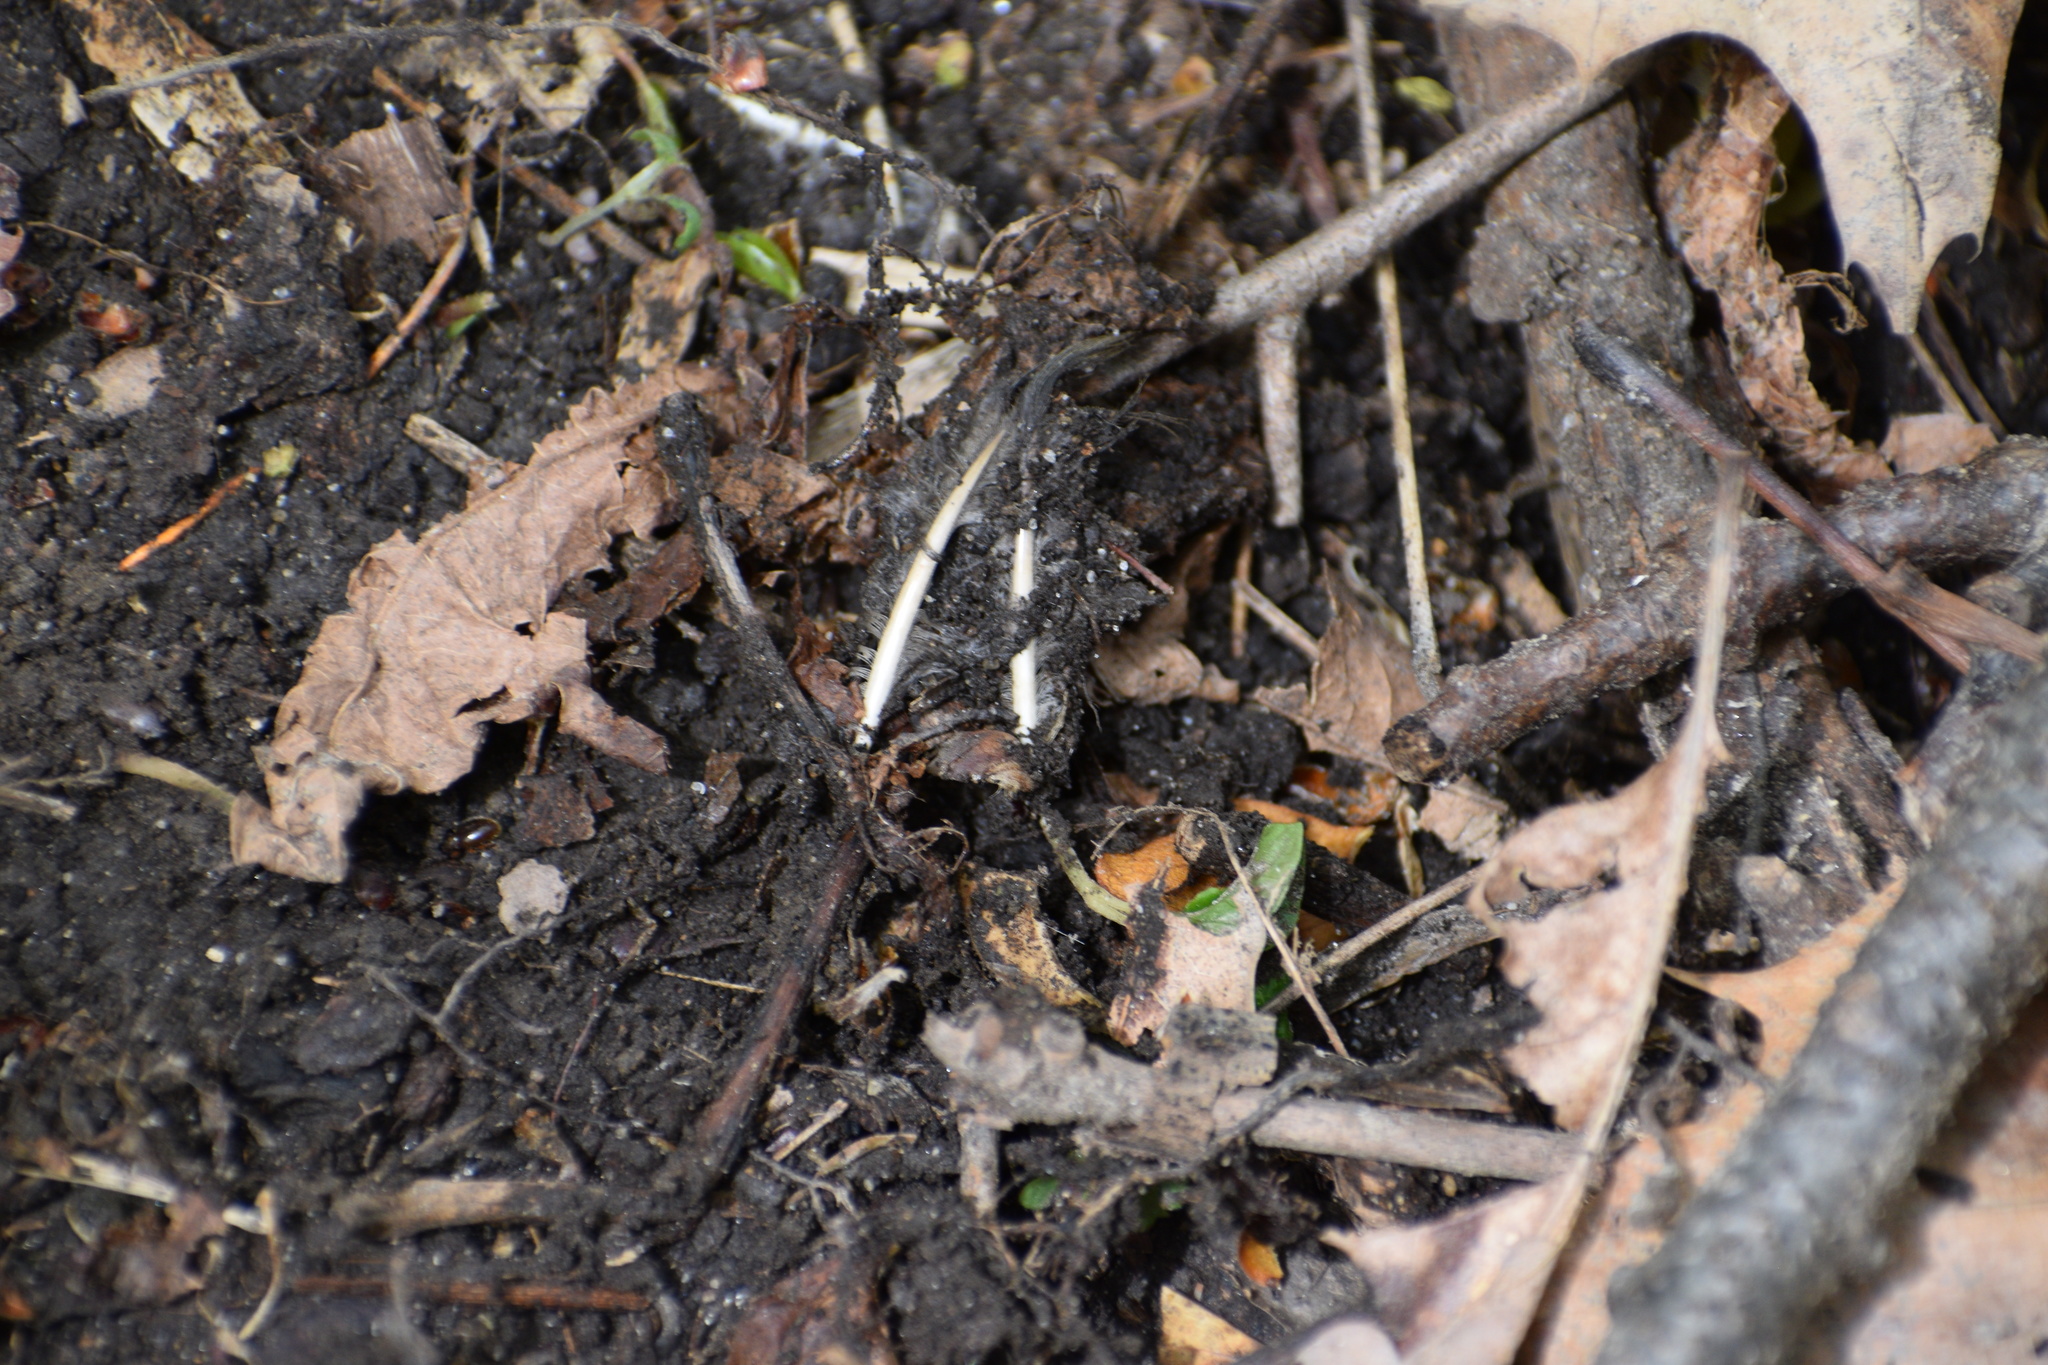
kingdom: Animalia
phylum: Chordata
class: Aves
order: Columbiformes
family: Columbidae
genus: Zenaida
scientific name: Zenaida macroura
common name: Mourning dove
